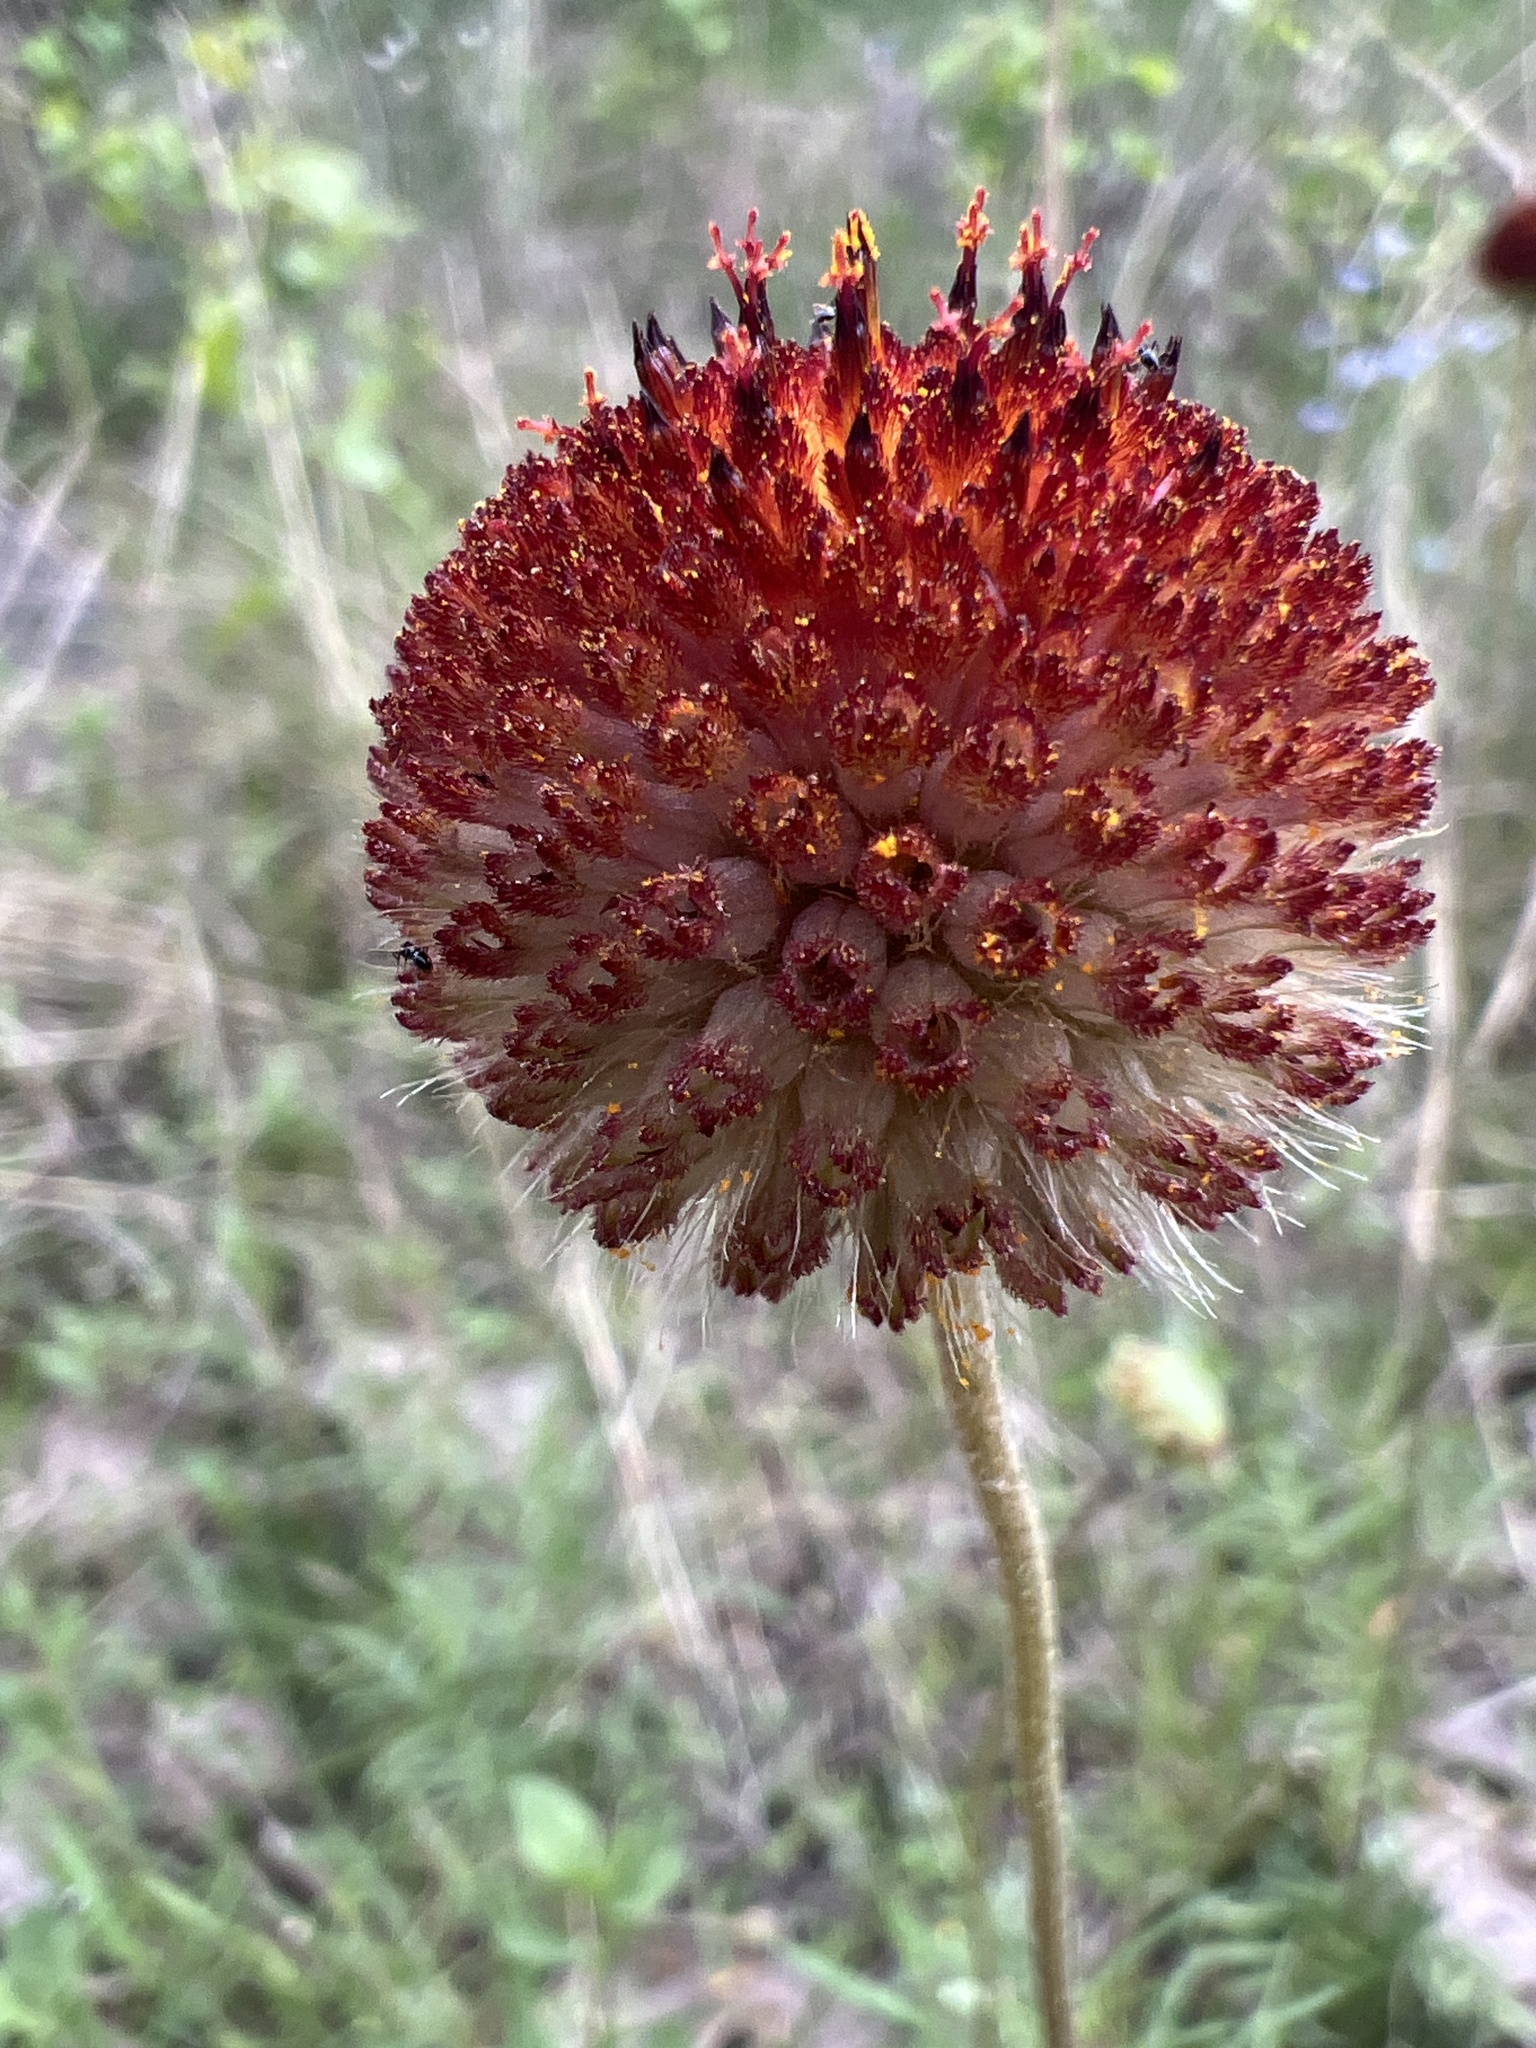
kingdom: Plantae
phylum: Tracheophyta
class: Magnoliopsida
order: Asterales
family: Asteraceae
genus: Gaillardia
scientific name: Gaillardia suavis
